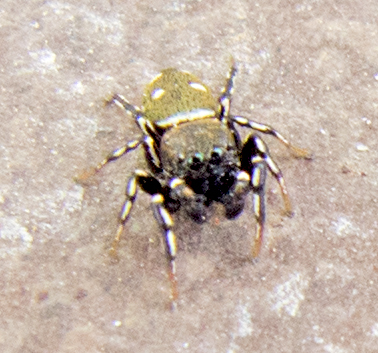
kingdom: Animalia
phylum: Arthropoda
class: Arachnida
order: Araneae
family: Salticidae
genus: Heliophanus
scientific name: Heliophanus kochii
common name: Sun jumping spider
